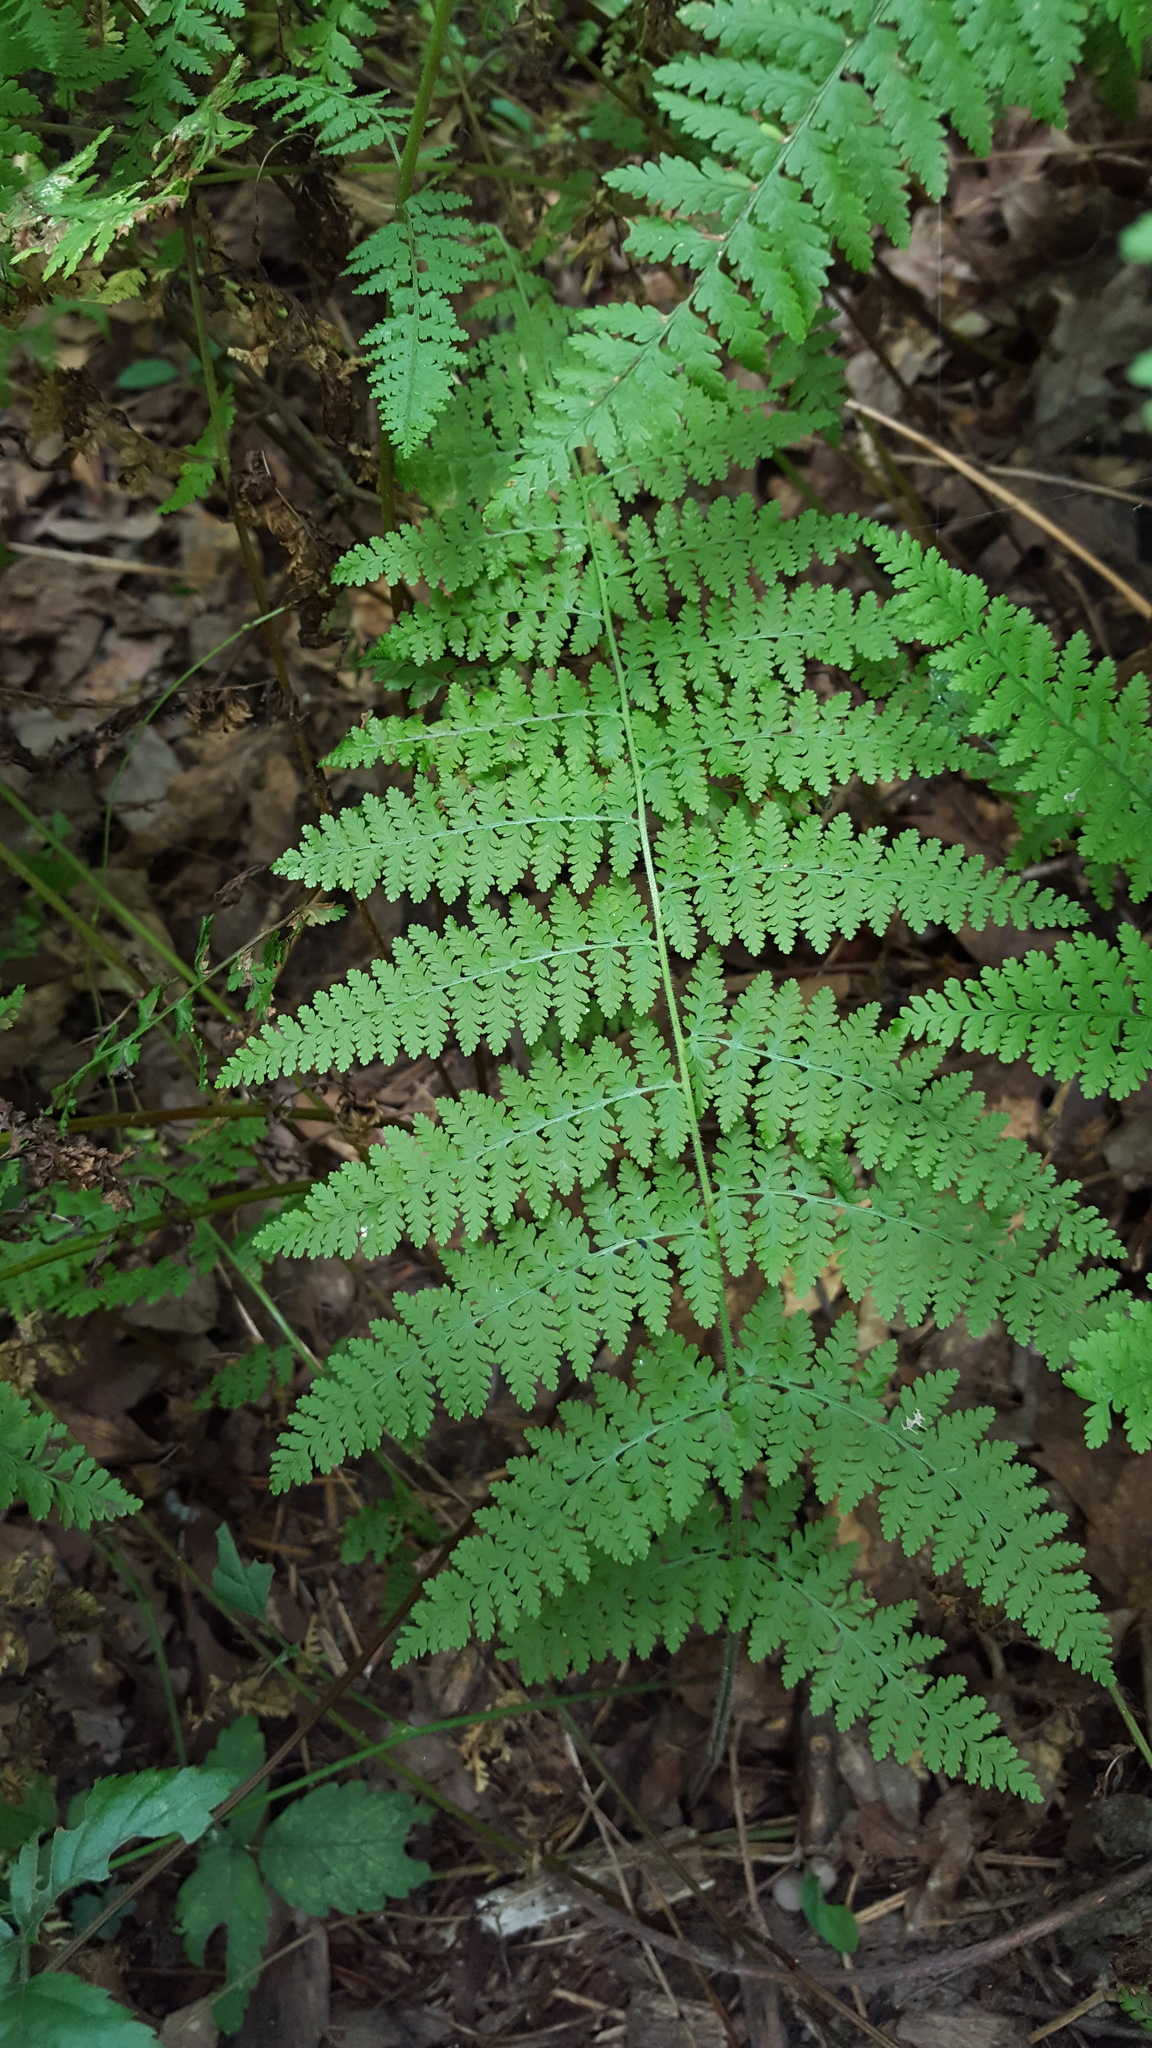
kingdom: Plantae
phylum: Tracheophyta
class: Polypodiopsida
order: Polypodiales
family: Dennstaedtiaceae
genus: Sitobolium
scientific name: Sitobolium punctilobum
